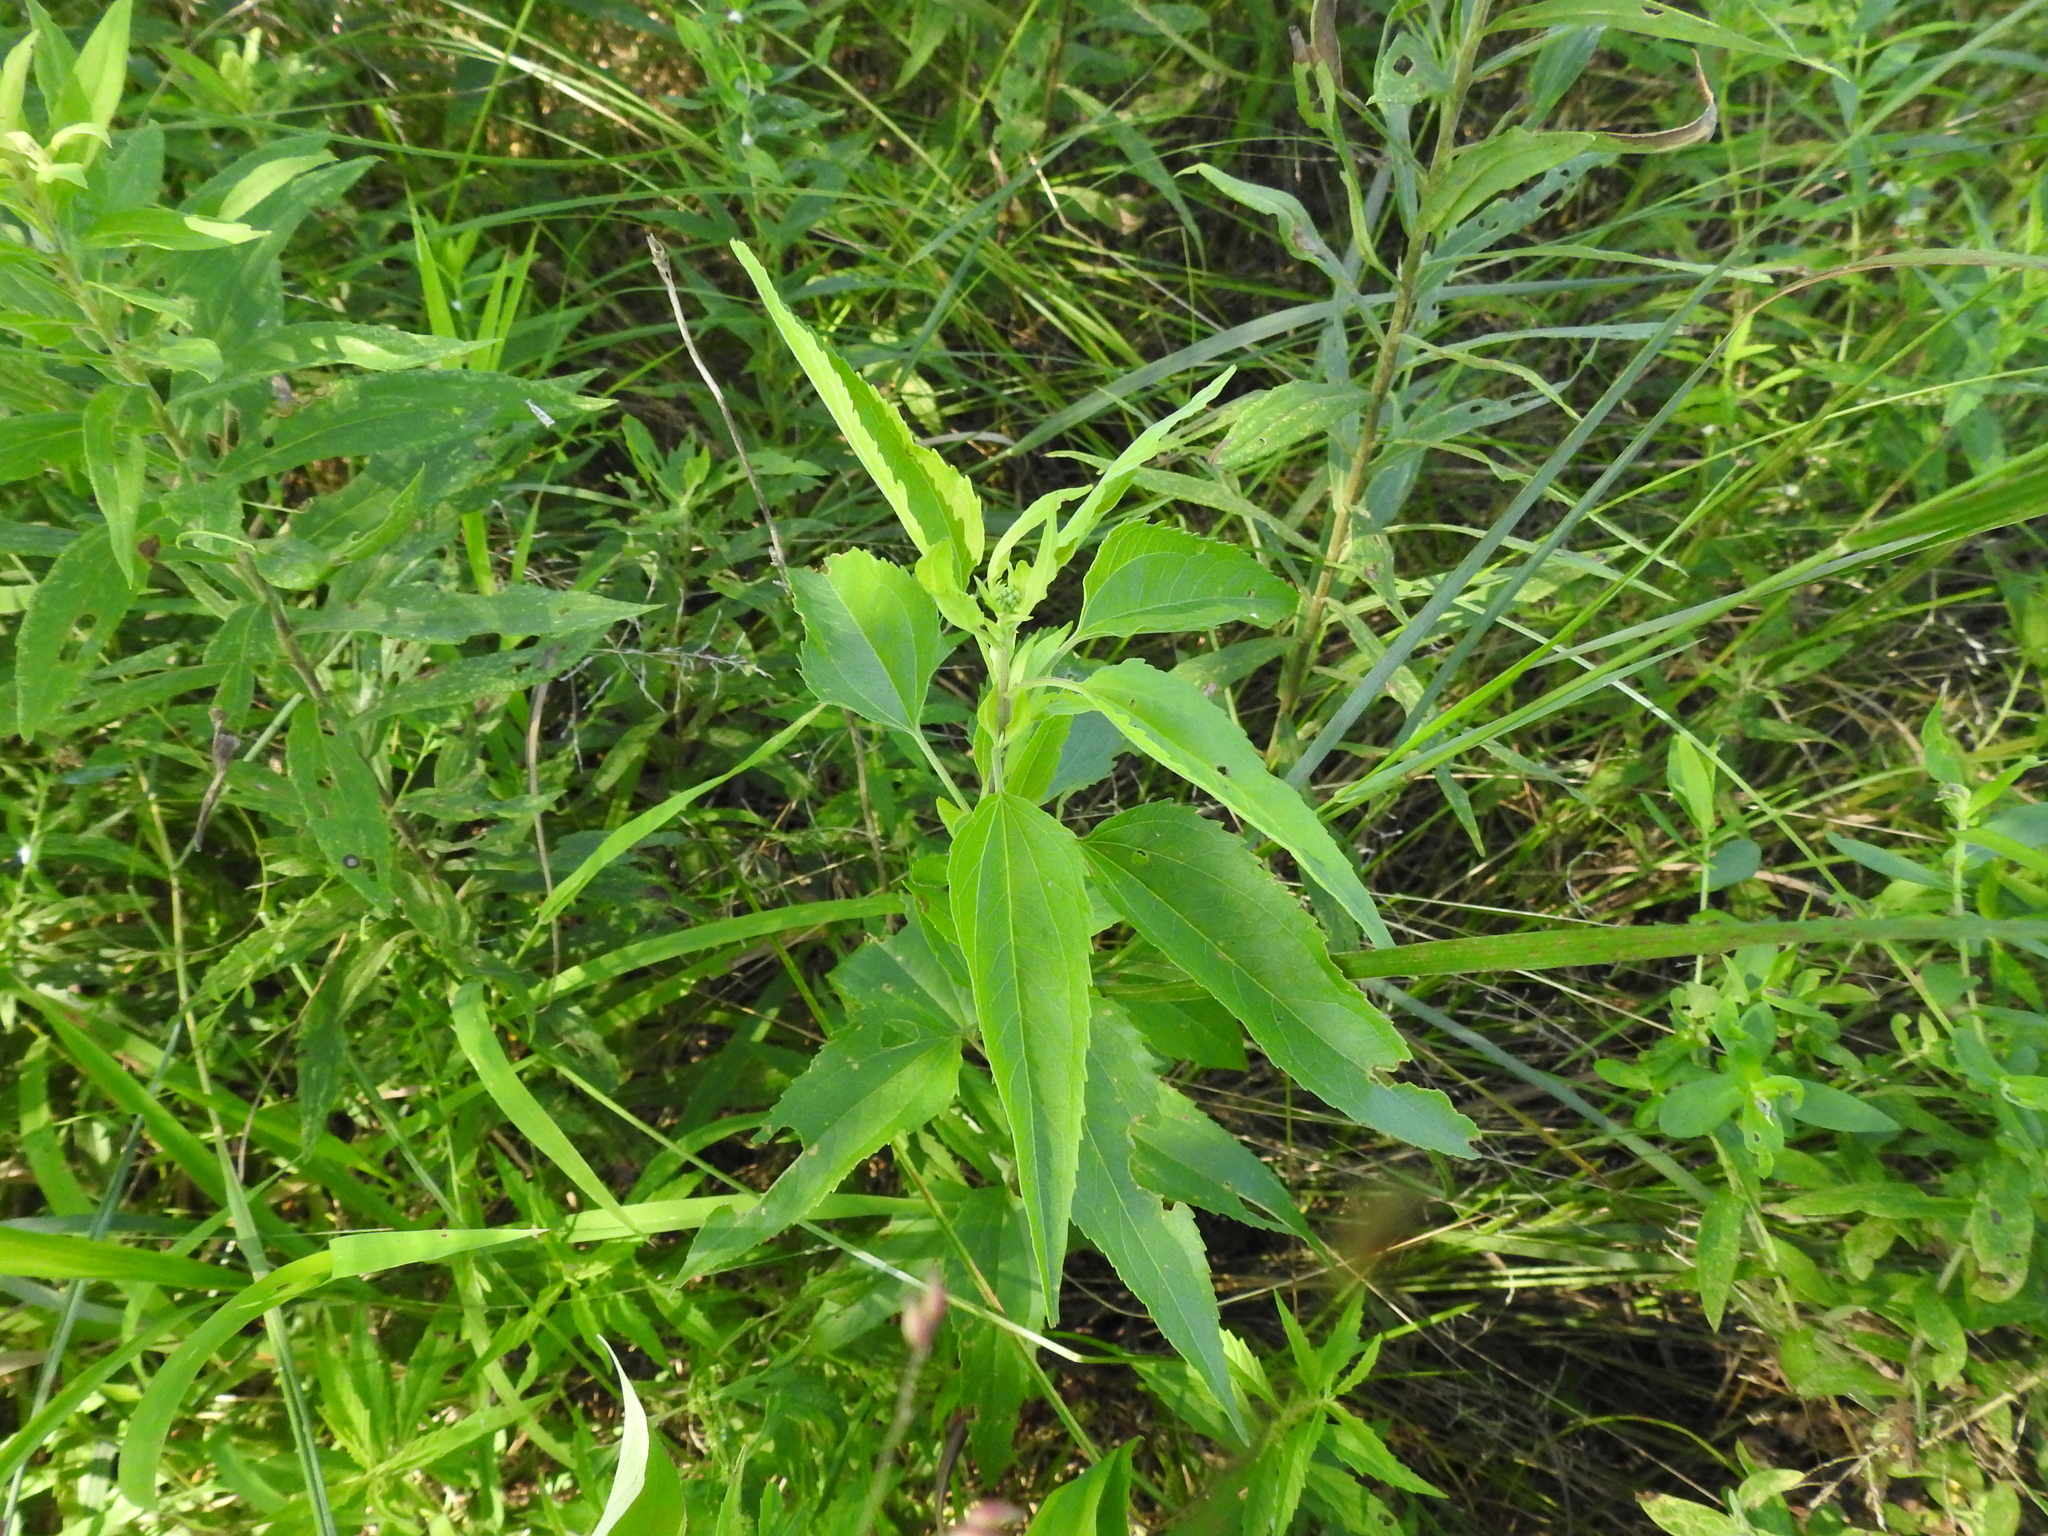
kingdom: Plantae
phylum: Tracheophyta
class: Magnoliopsida
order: Asterales
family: Asteraceae
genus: Eupatorium
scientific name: Eupatorium serotinum
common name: Late boneset
